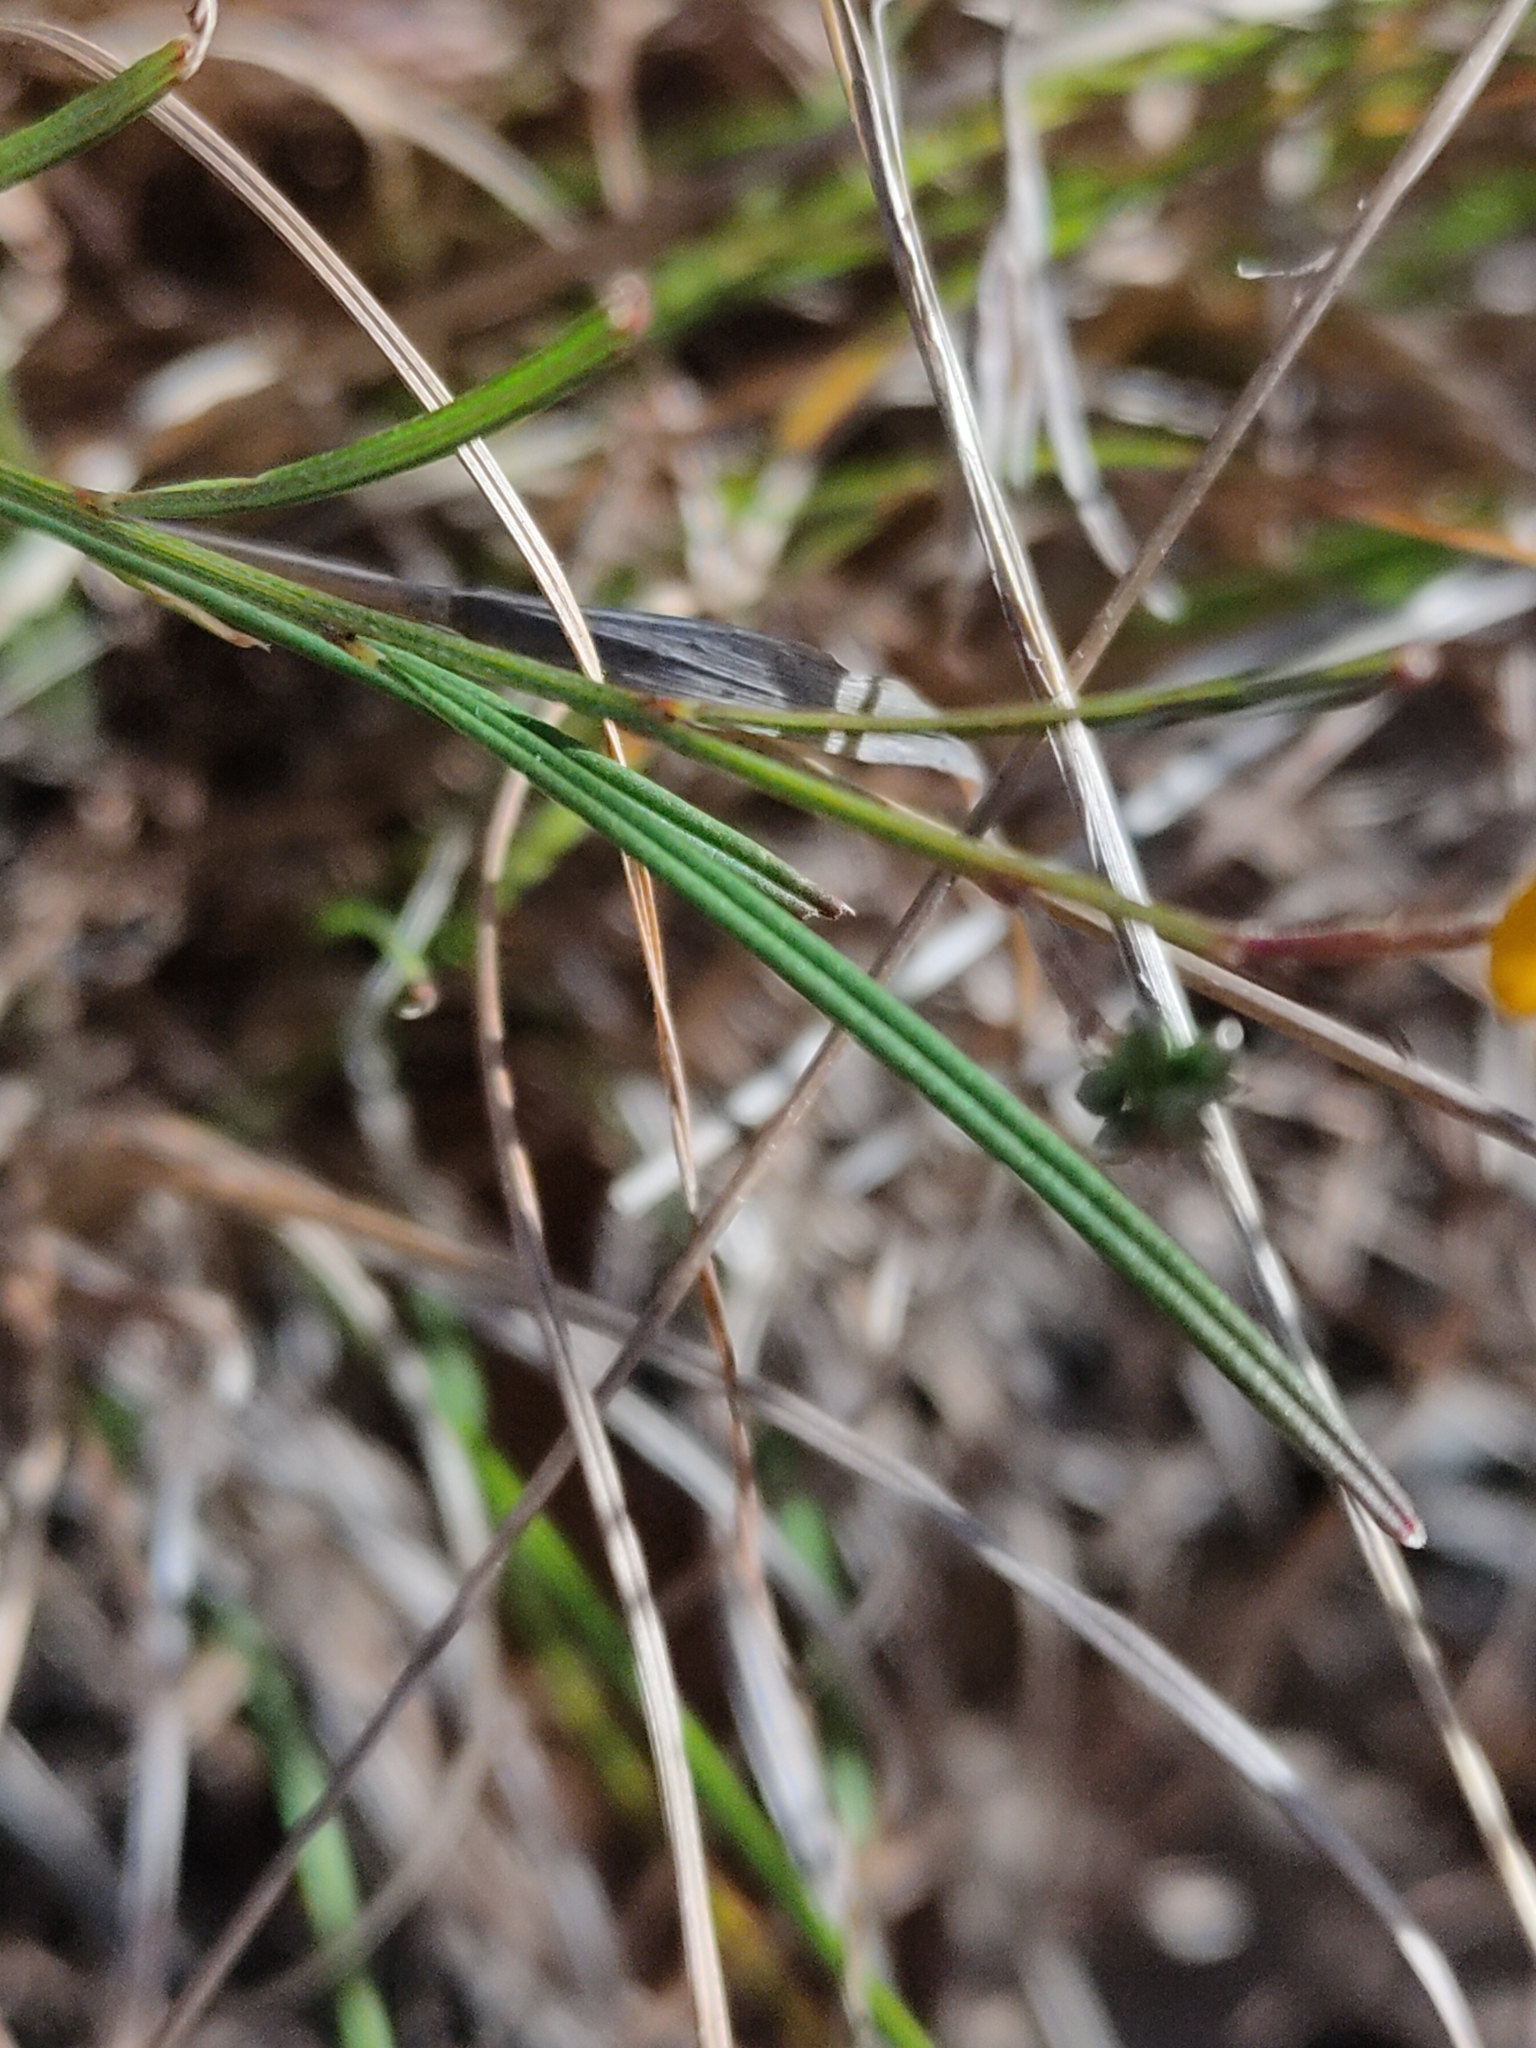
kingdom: Plantae
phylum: Tracheophyta
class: Magnoliopsida
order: Fabales
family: Fabaceae
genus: Chorizema
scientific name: Chorizema parviflorum
